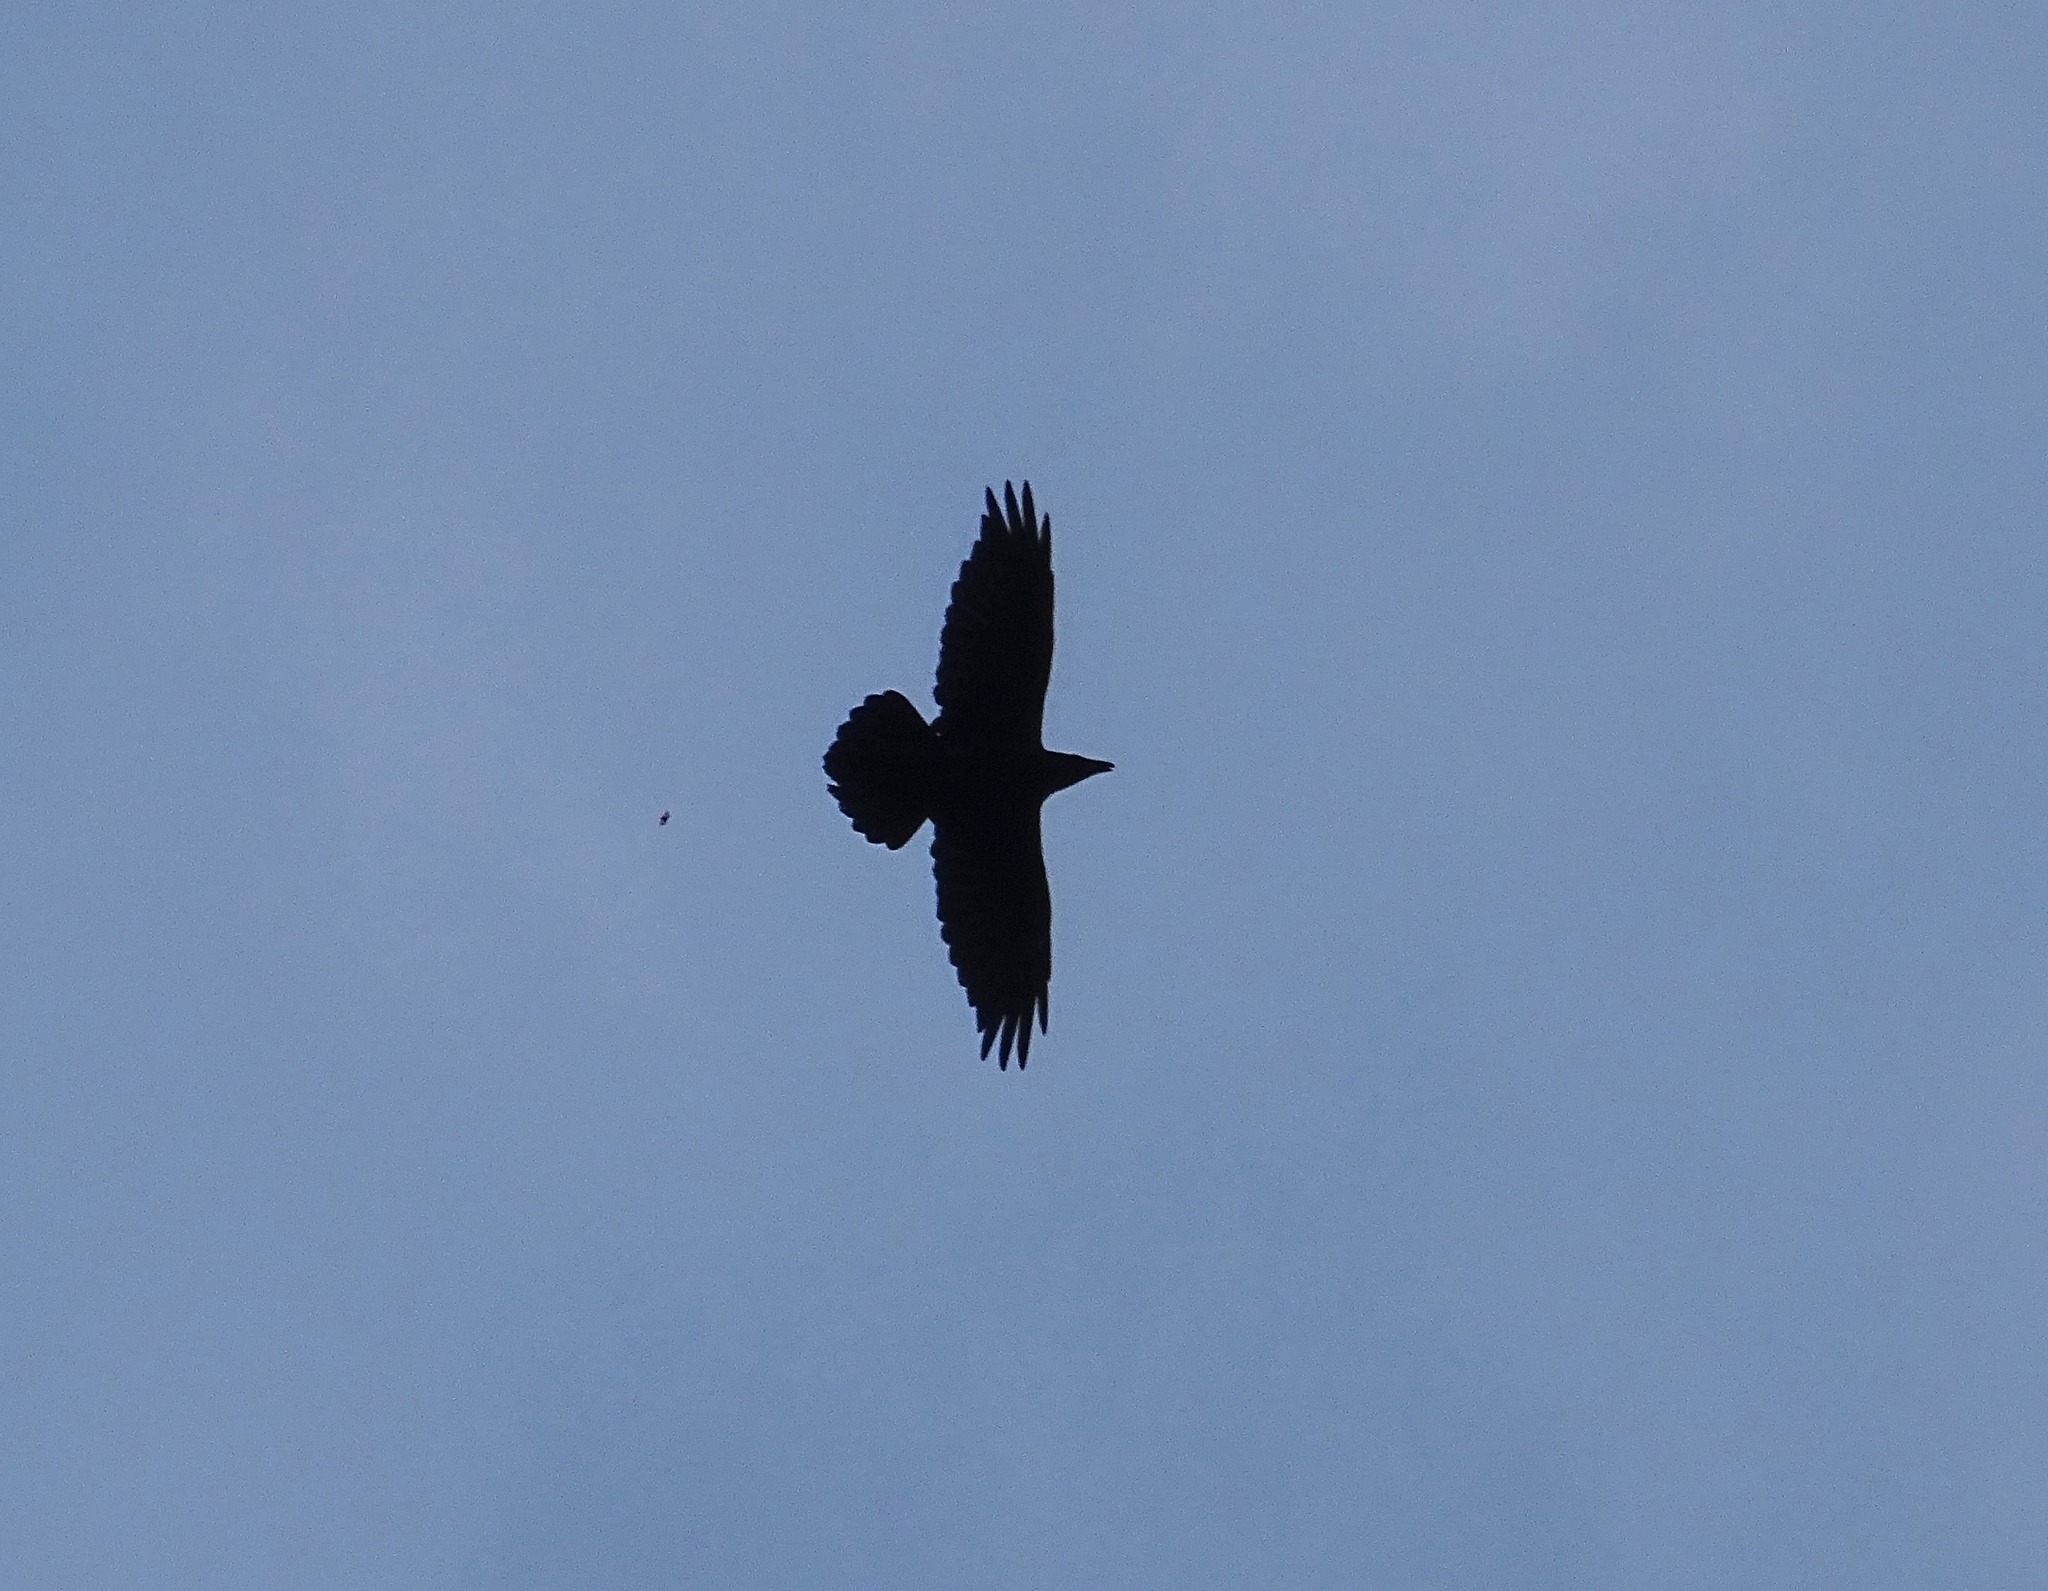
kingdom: Animalia
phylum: Chordata
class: Aves
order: Passeriformes
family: Corvidae
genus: Corvus
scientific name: Corvus corax
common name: Common raven
